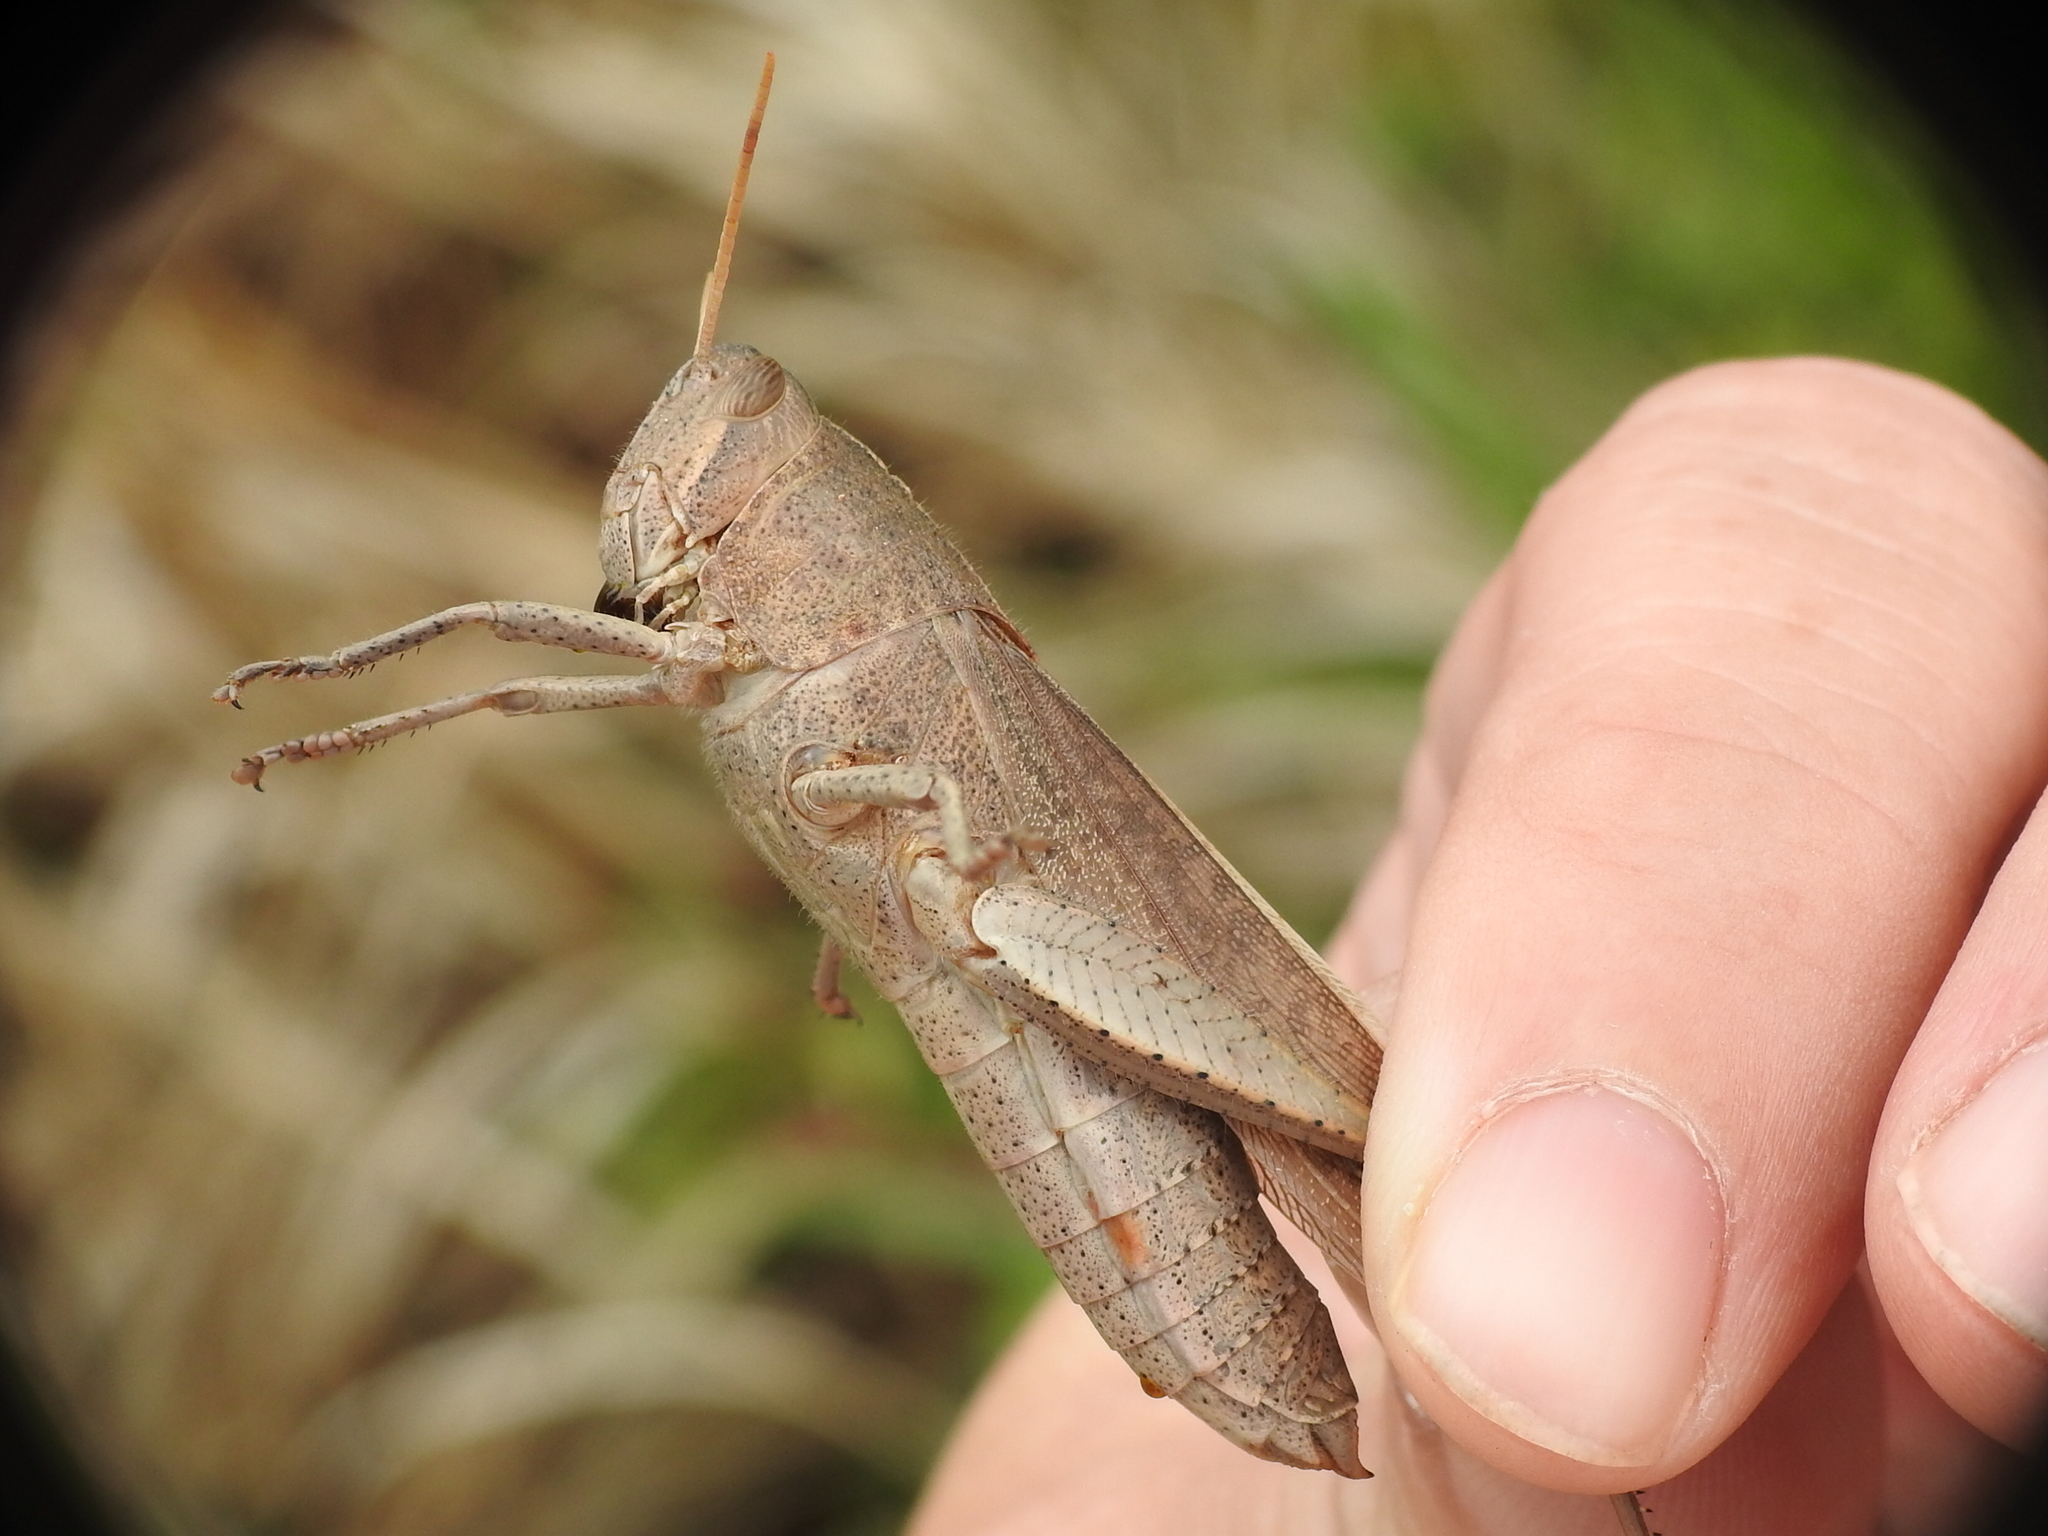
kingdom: Animalia
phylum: Arthropoda
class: Insecta
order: Orthoptera
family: Acrididae
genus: Schistocerca
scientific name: Schistocerca damnifica
